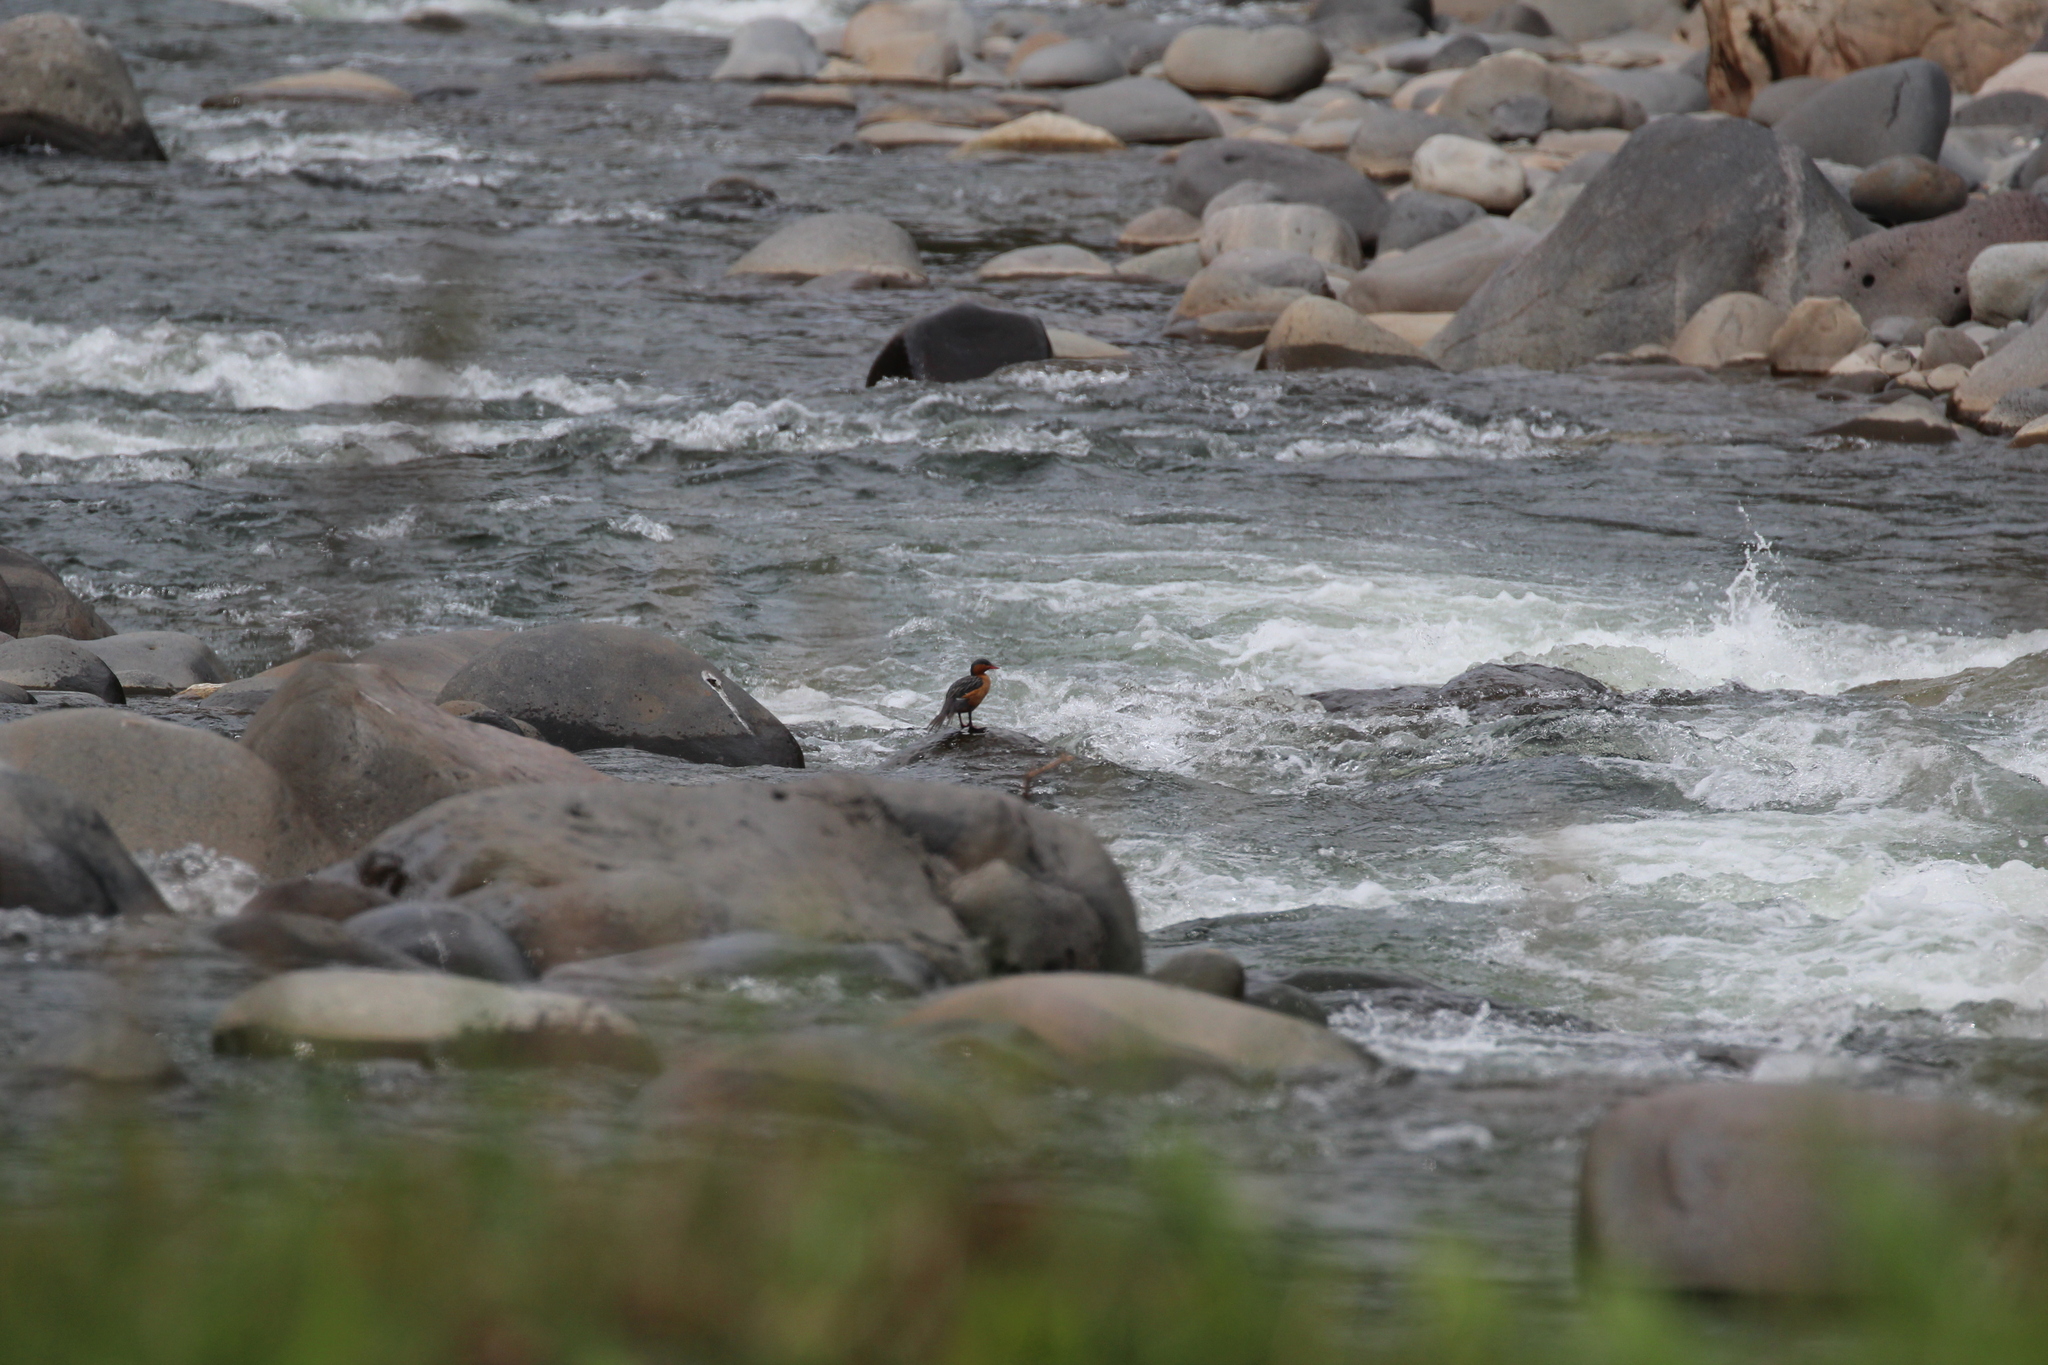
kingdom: Animalia
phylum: Chordata
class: Aves
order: Anseriformes
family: Anatidae
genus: Merganetta
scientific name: Merganetta armata
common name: Torrent duck
